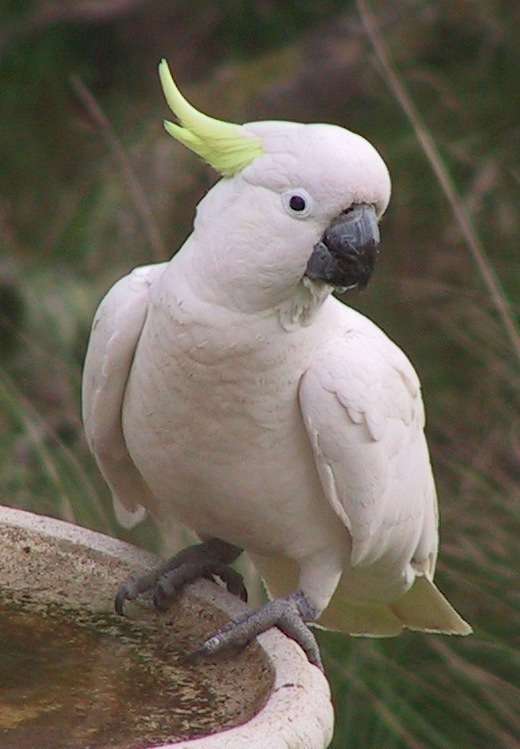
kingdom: Animalia
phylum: Chordata
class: Aves
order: Psittaciformes
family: Psittacidae
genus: Cacatua
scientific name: Cacatua galerita
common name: Sulphur-crested cockatoo
